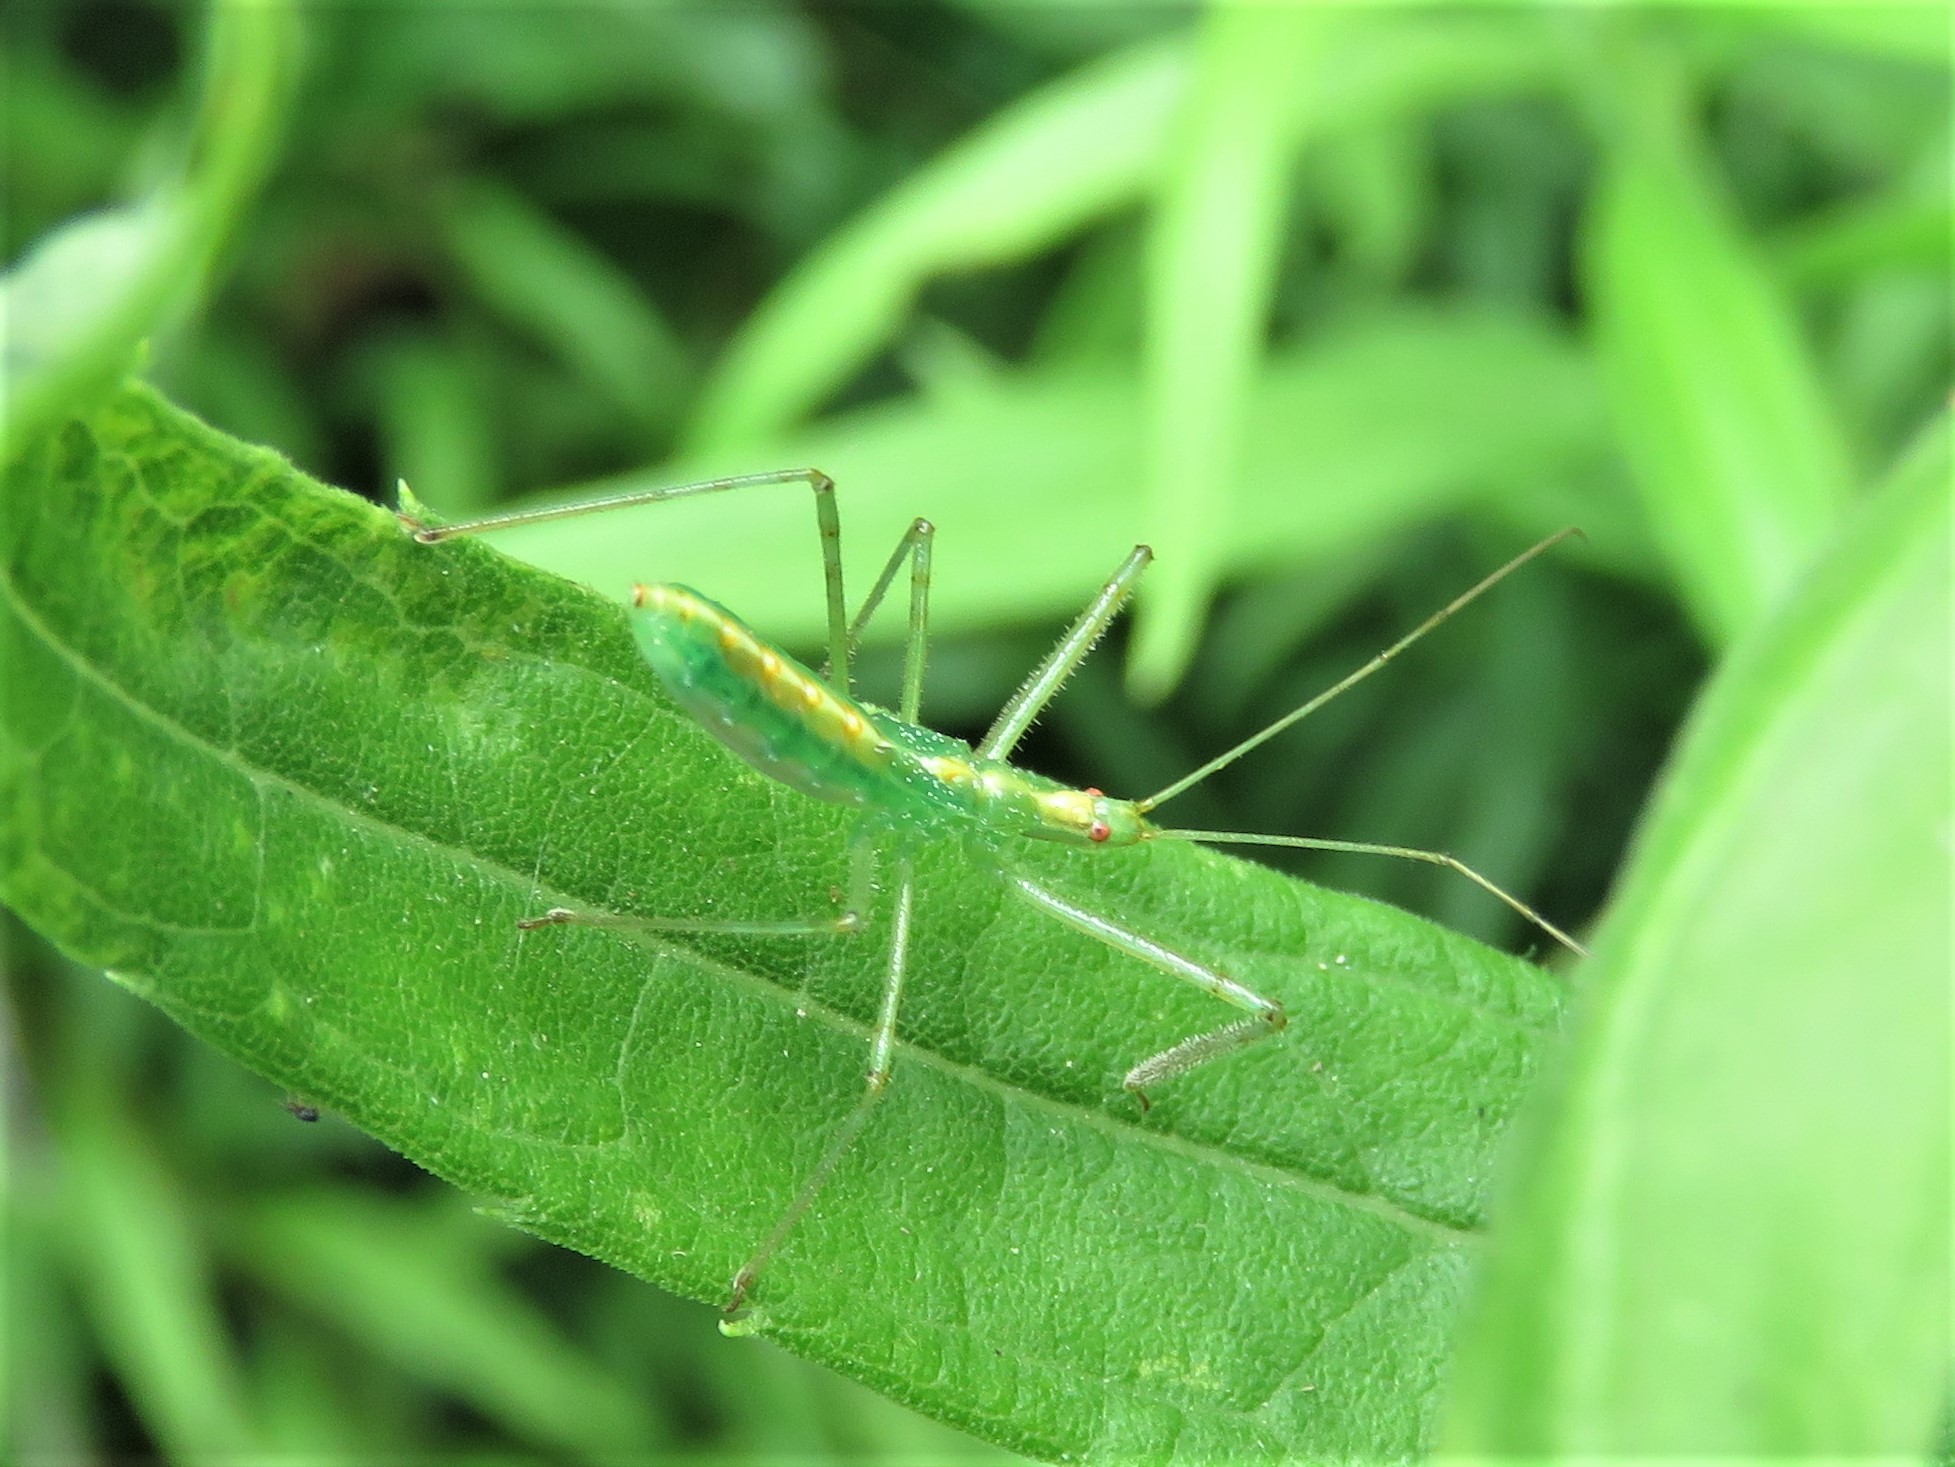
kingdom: Animalia
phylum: Arthropoda
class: Insecta
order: Hemiptera
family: Reduviidae
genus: Zelus
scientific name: Zelus luridus
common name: Pale green assassin bug
